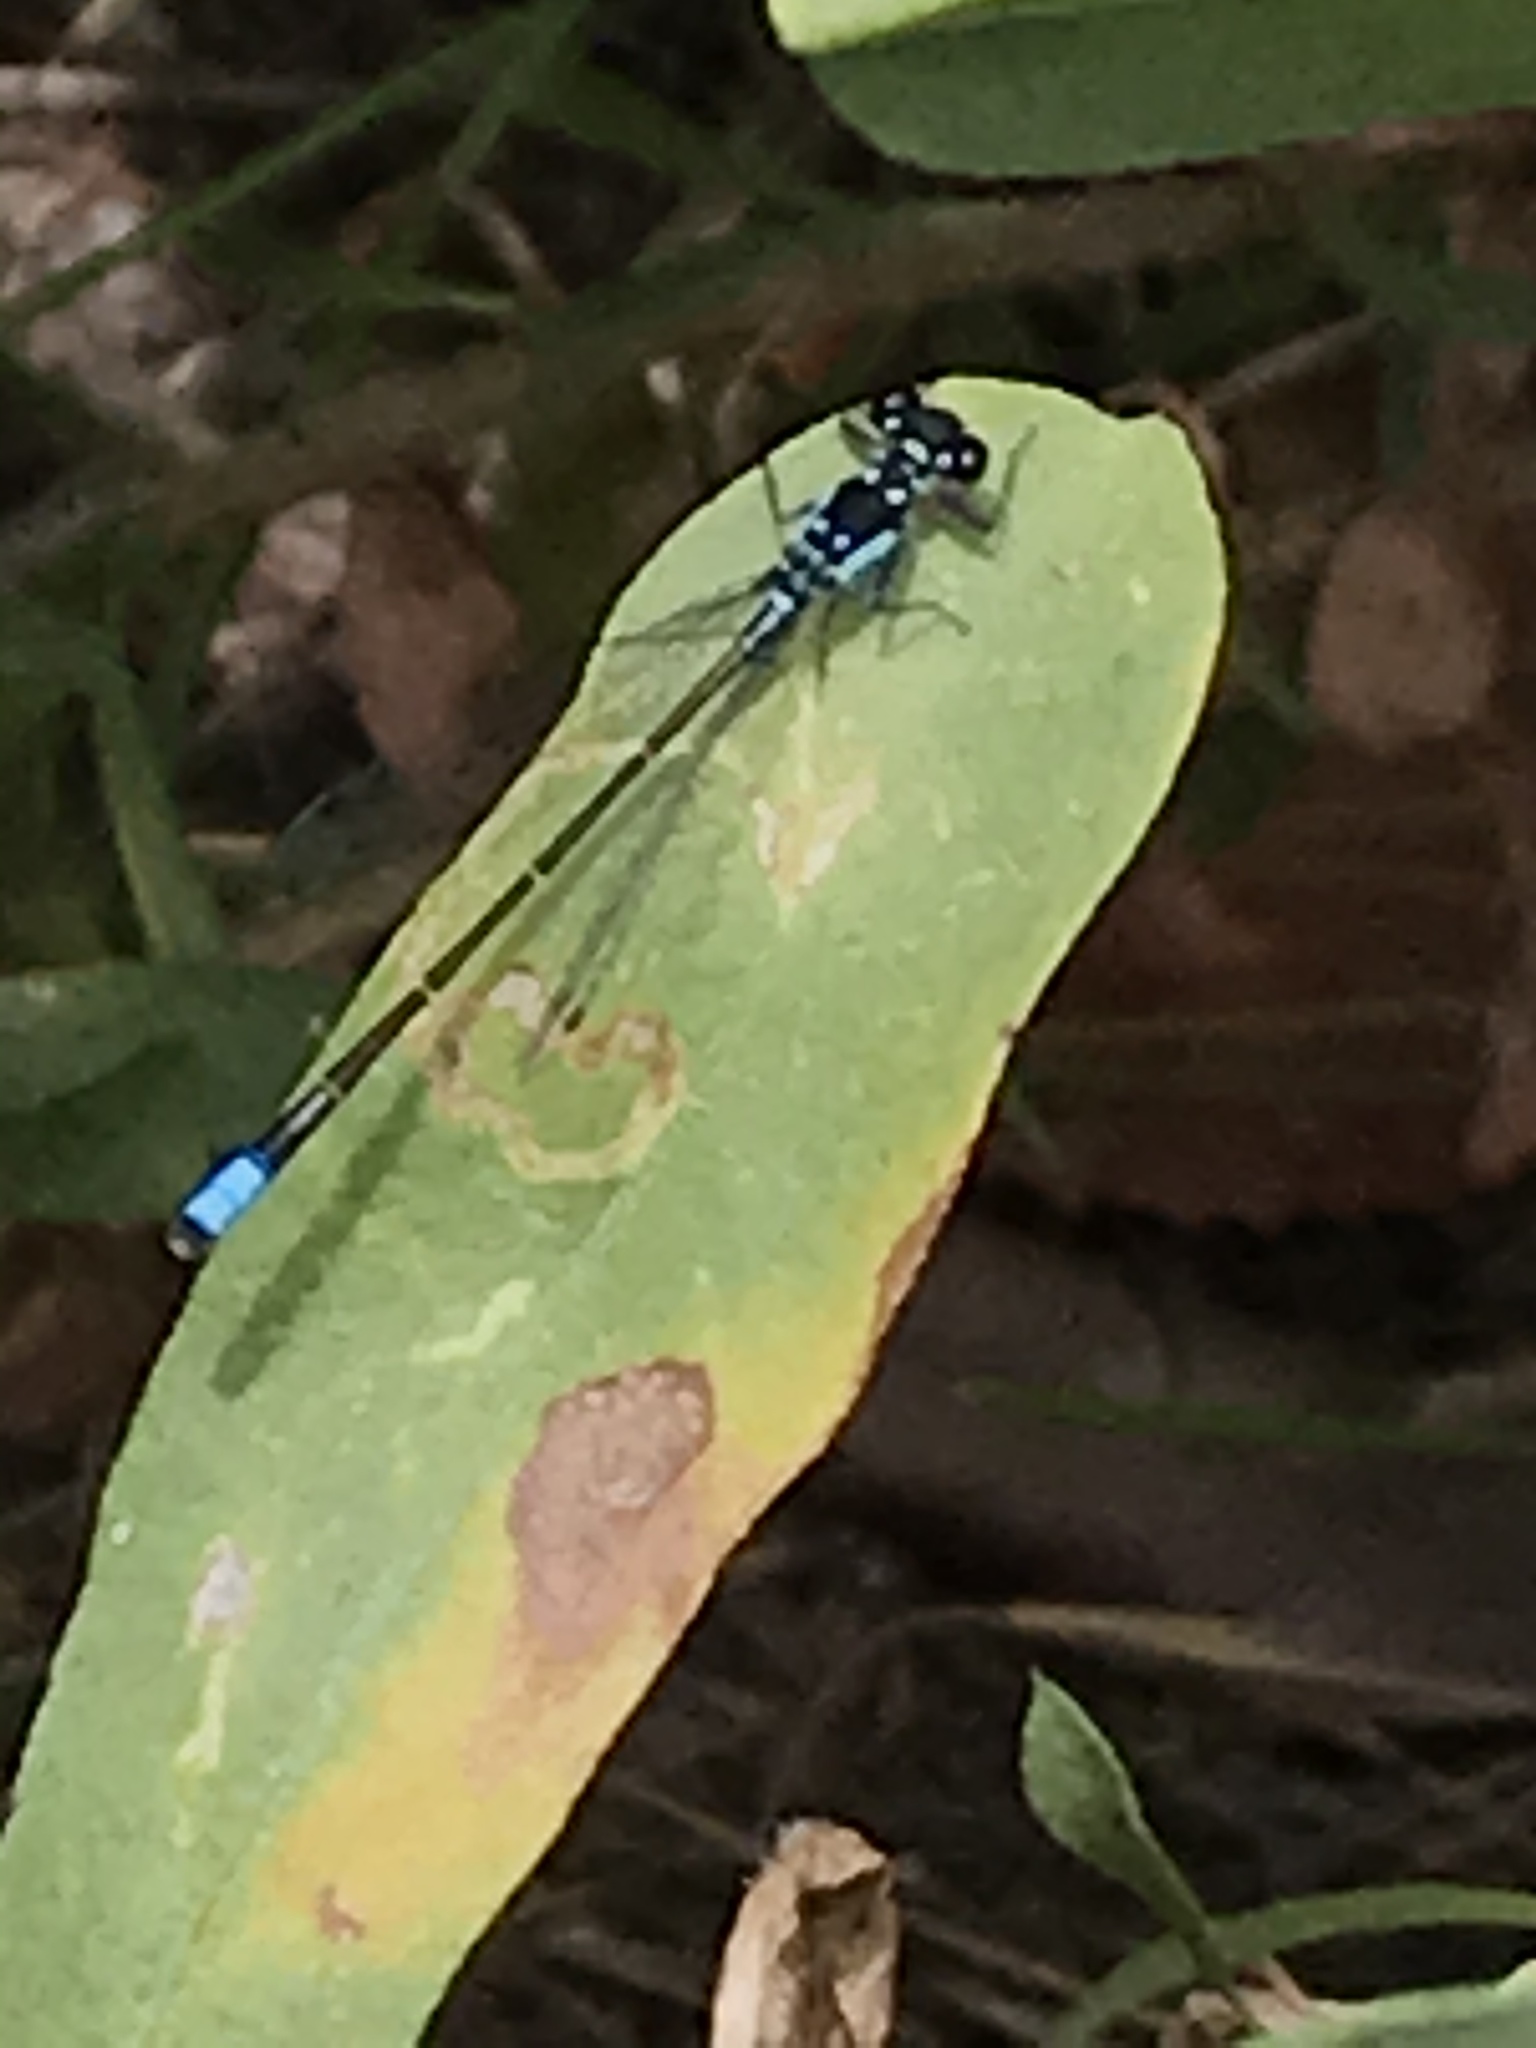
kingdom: Animalia
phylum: Arthropoda
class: Insecta
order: Odonata
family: Coenagrionidae
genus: Ischnura
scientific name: Ischnura cervula
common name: Pacific forktail
